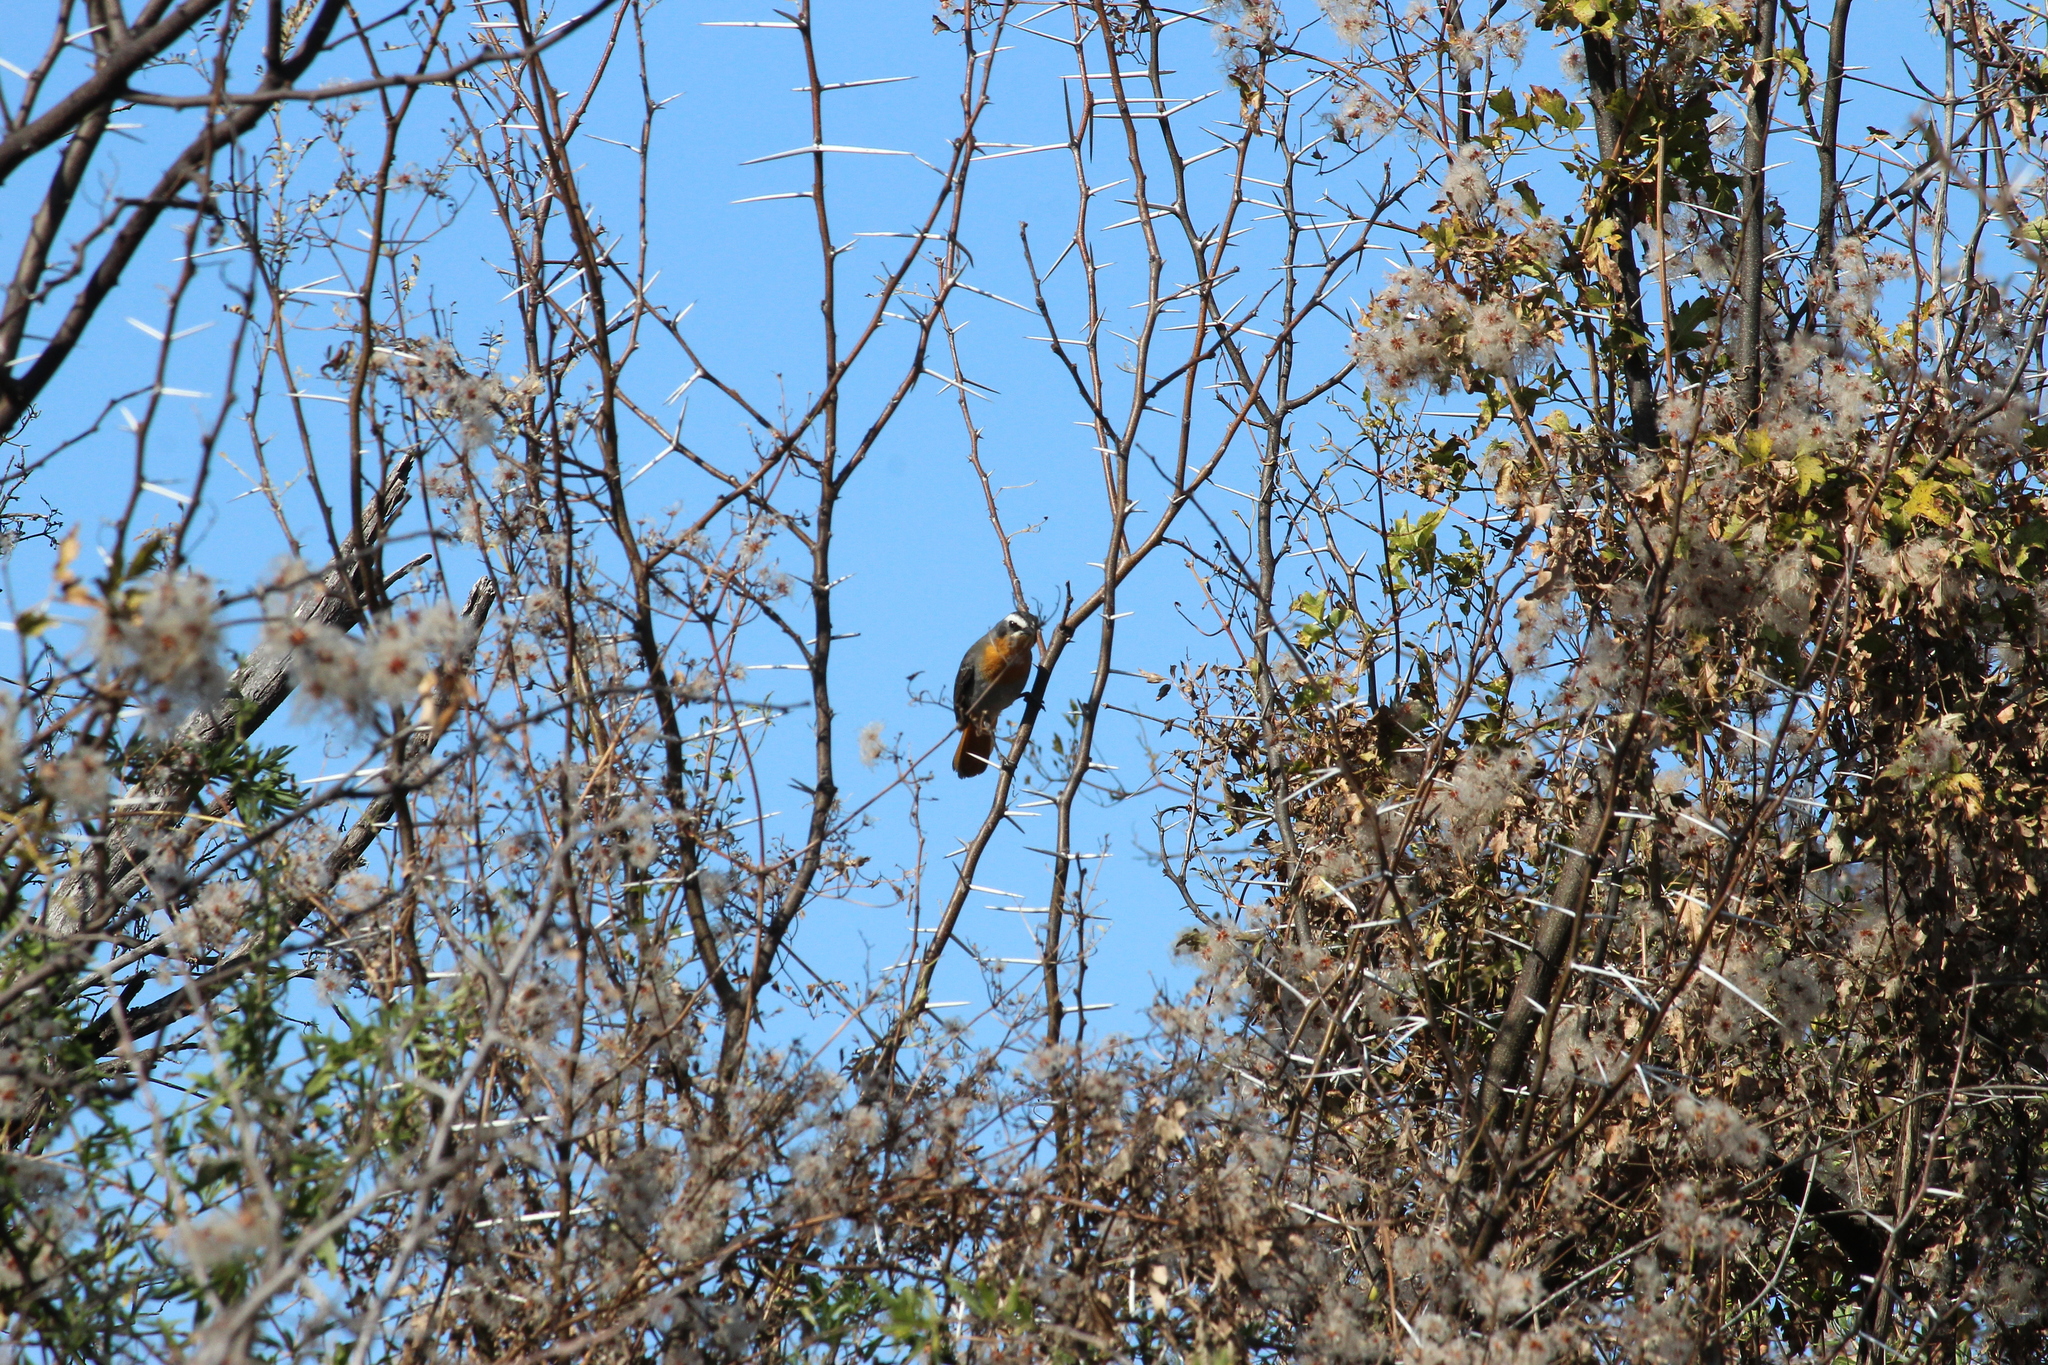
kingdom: Animalia
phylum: Chordata
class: Aves
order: Passeriformes
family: Muscicapidae
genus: Cossypha
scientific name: Cossypha caffra
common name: Cape robin-chat
